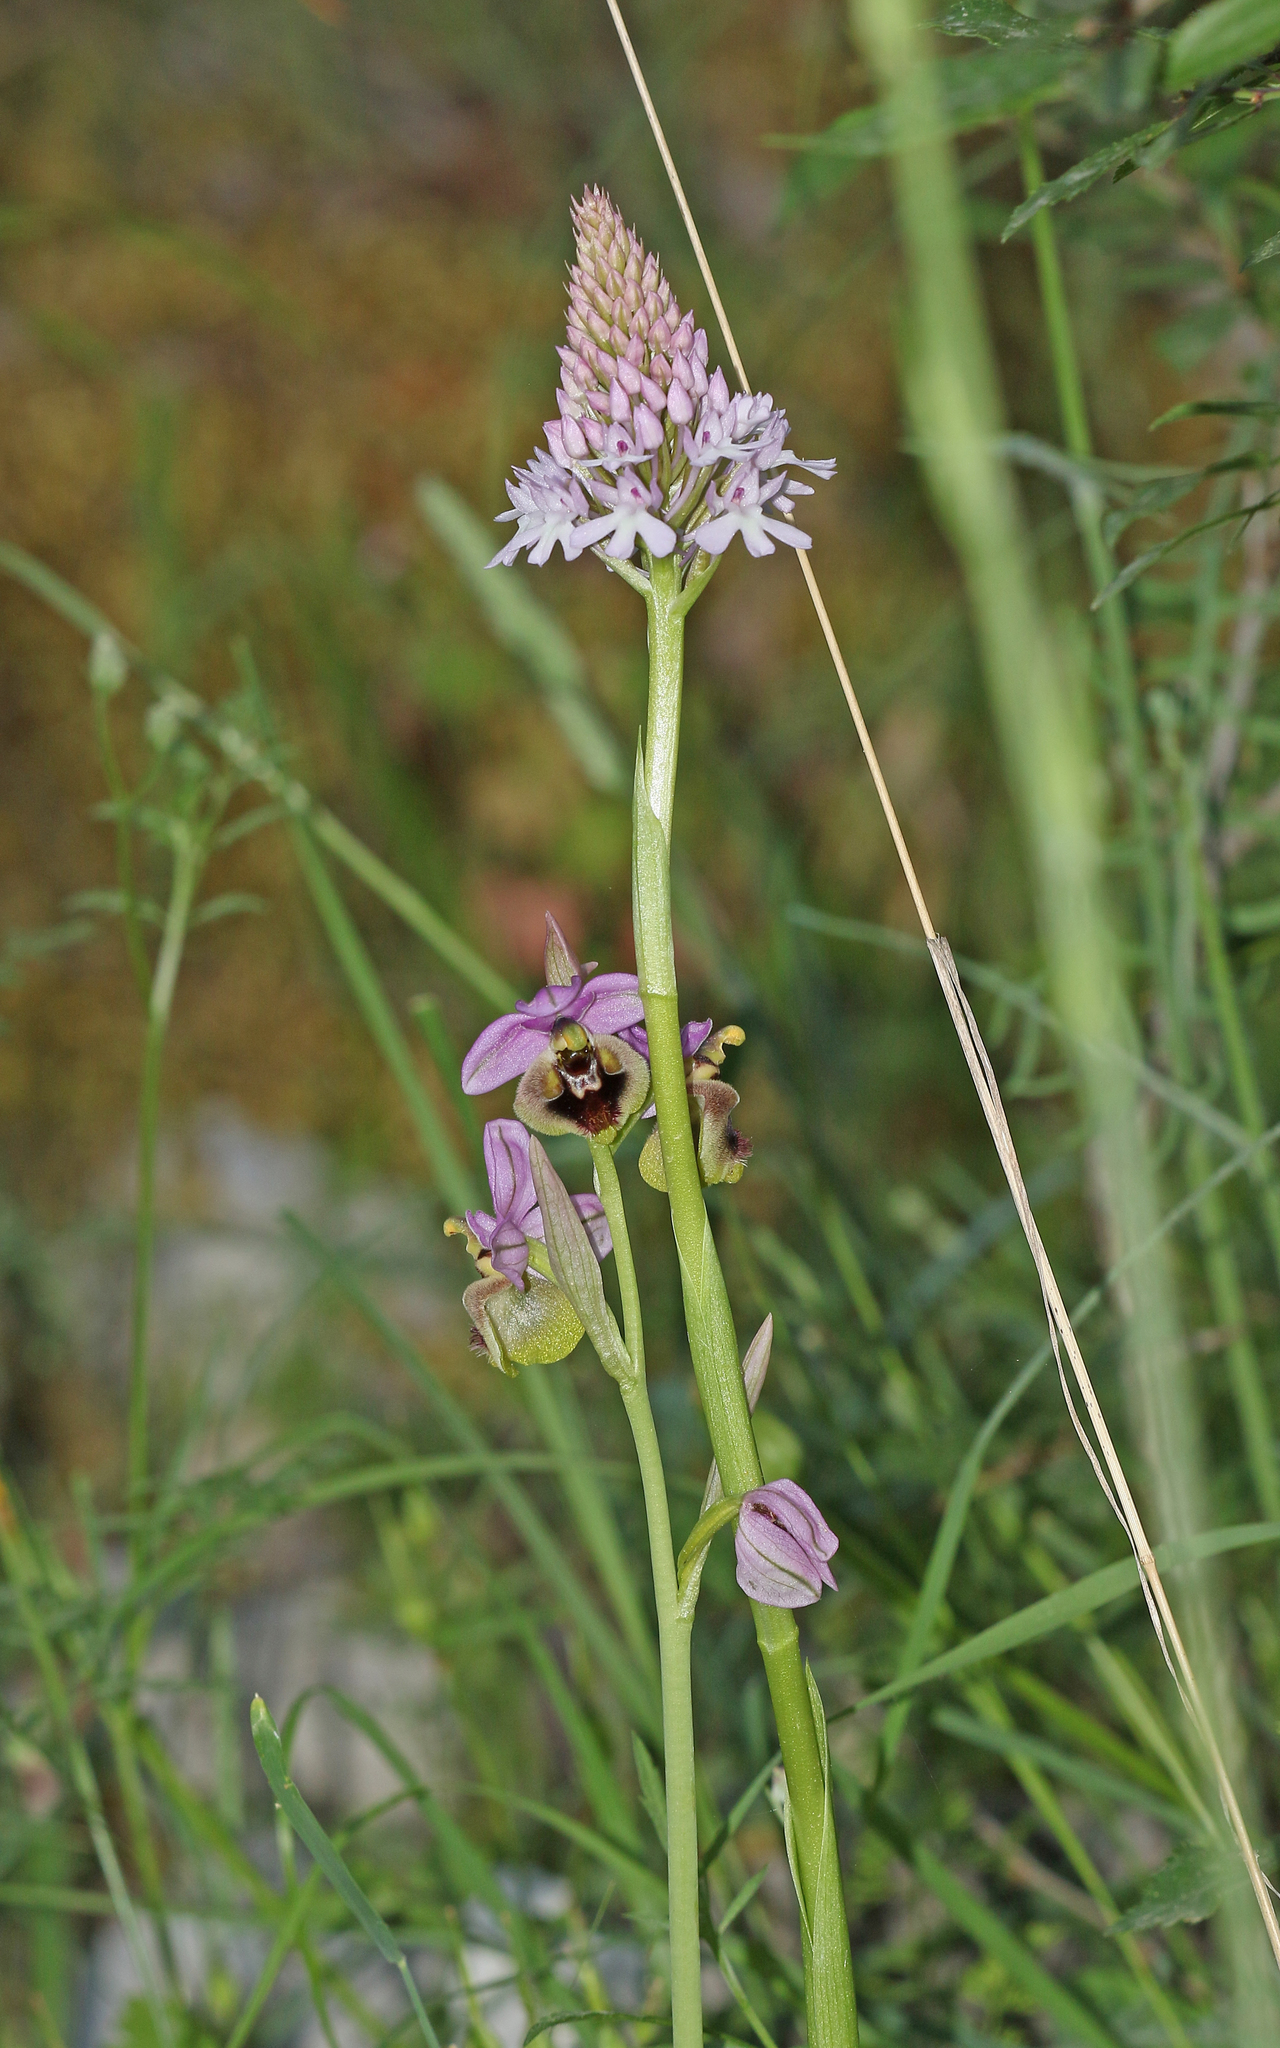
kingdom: Plantae
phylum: Tracheophyta
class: Liliopsida
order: Asparagales
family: Orchidaceae
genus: Anacamptis
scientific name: Anacamptis pyramidalis
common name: Pyramidal orchid
